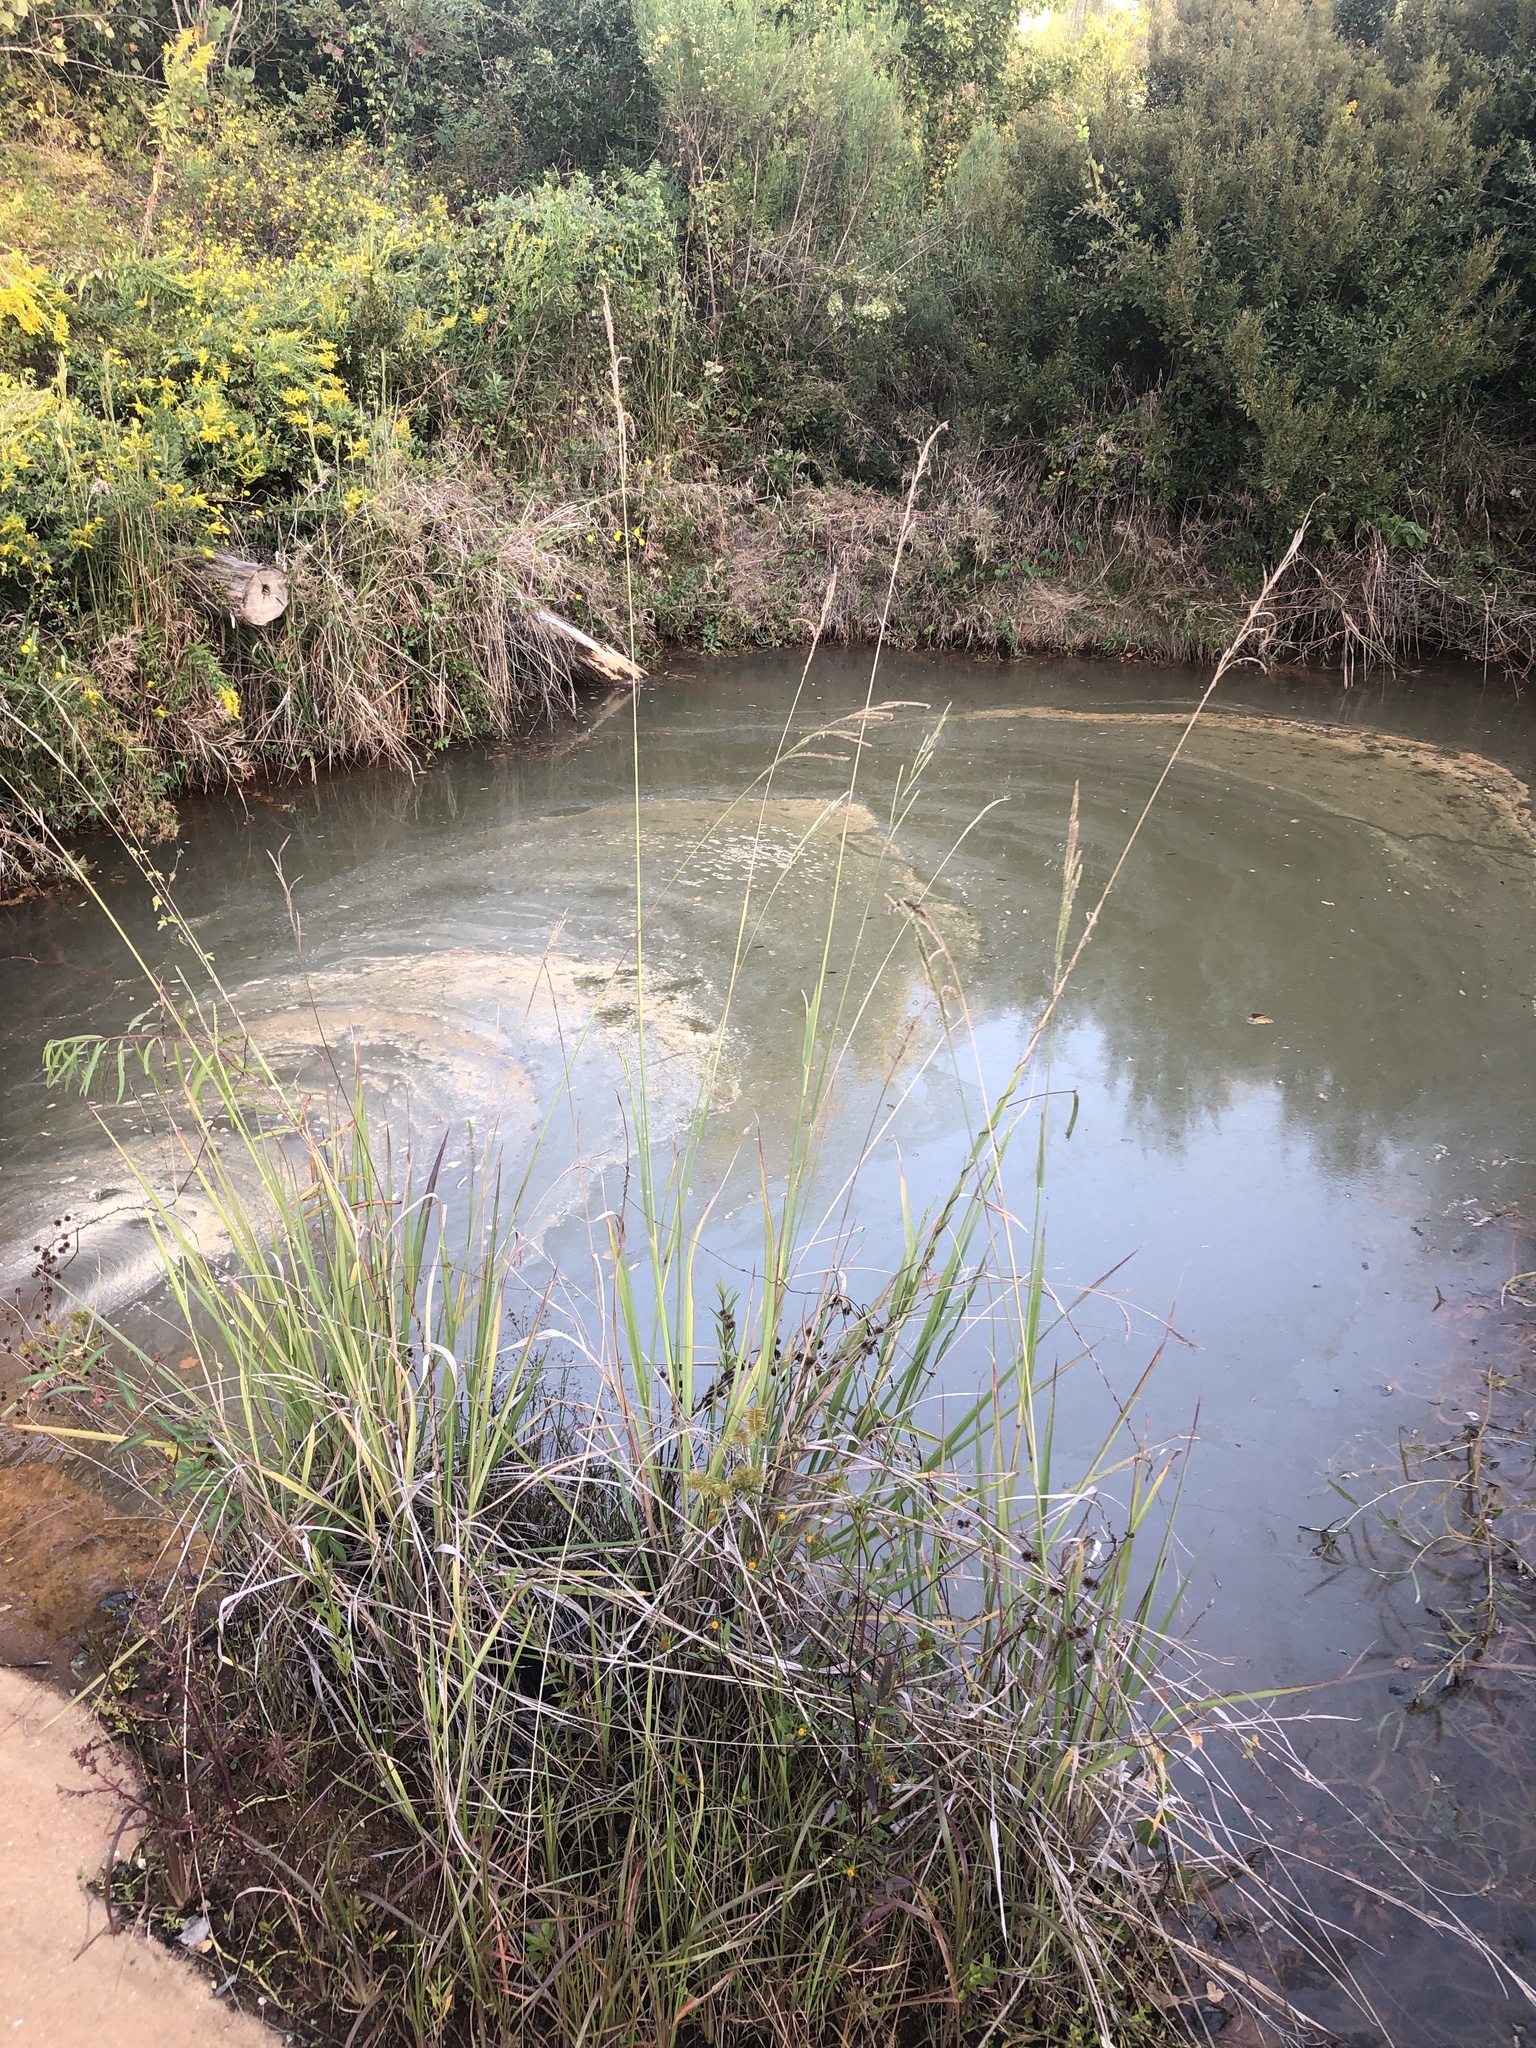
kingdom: Plantae
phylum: Tracheophyta
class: Liliopsida
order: Poales
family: Poaceae
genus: Paspalum
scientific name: Paspalum urvillei
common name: Vasey's grass
